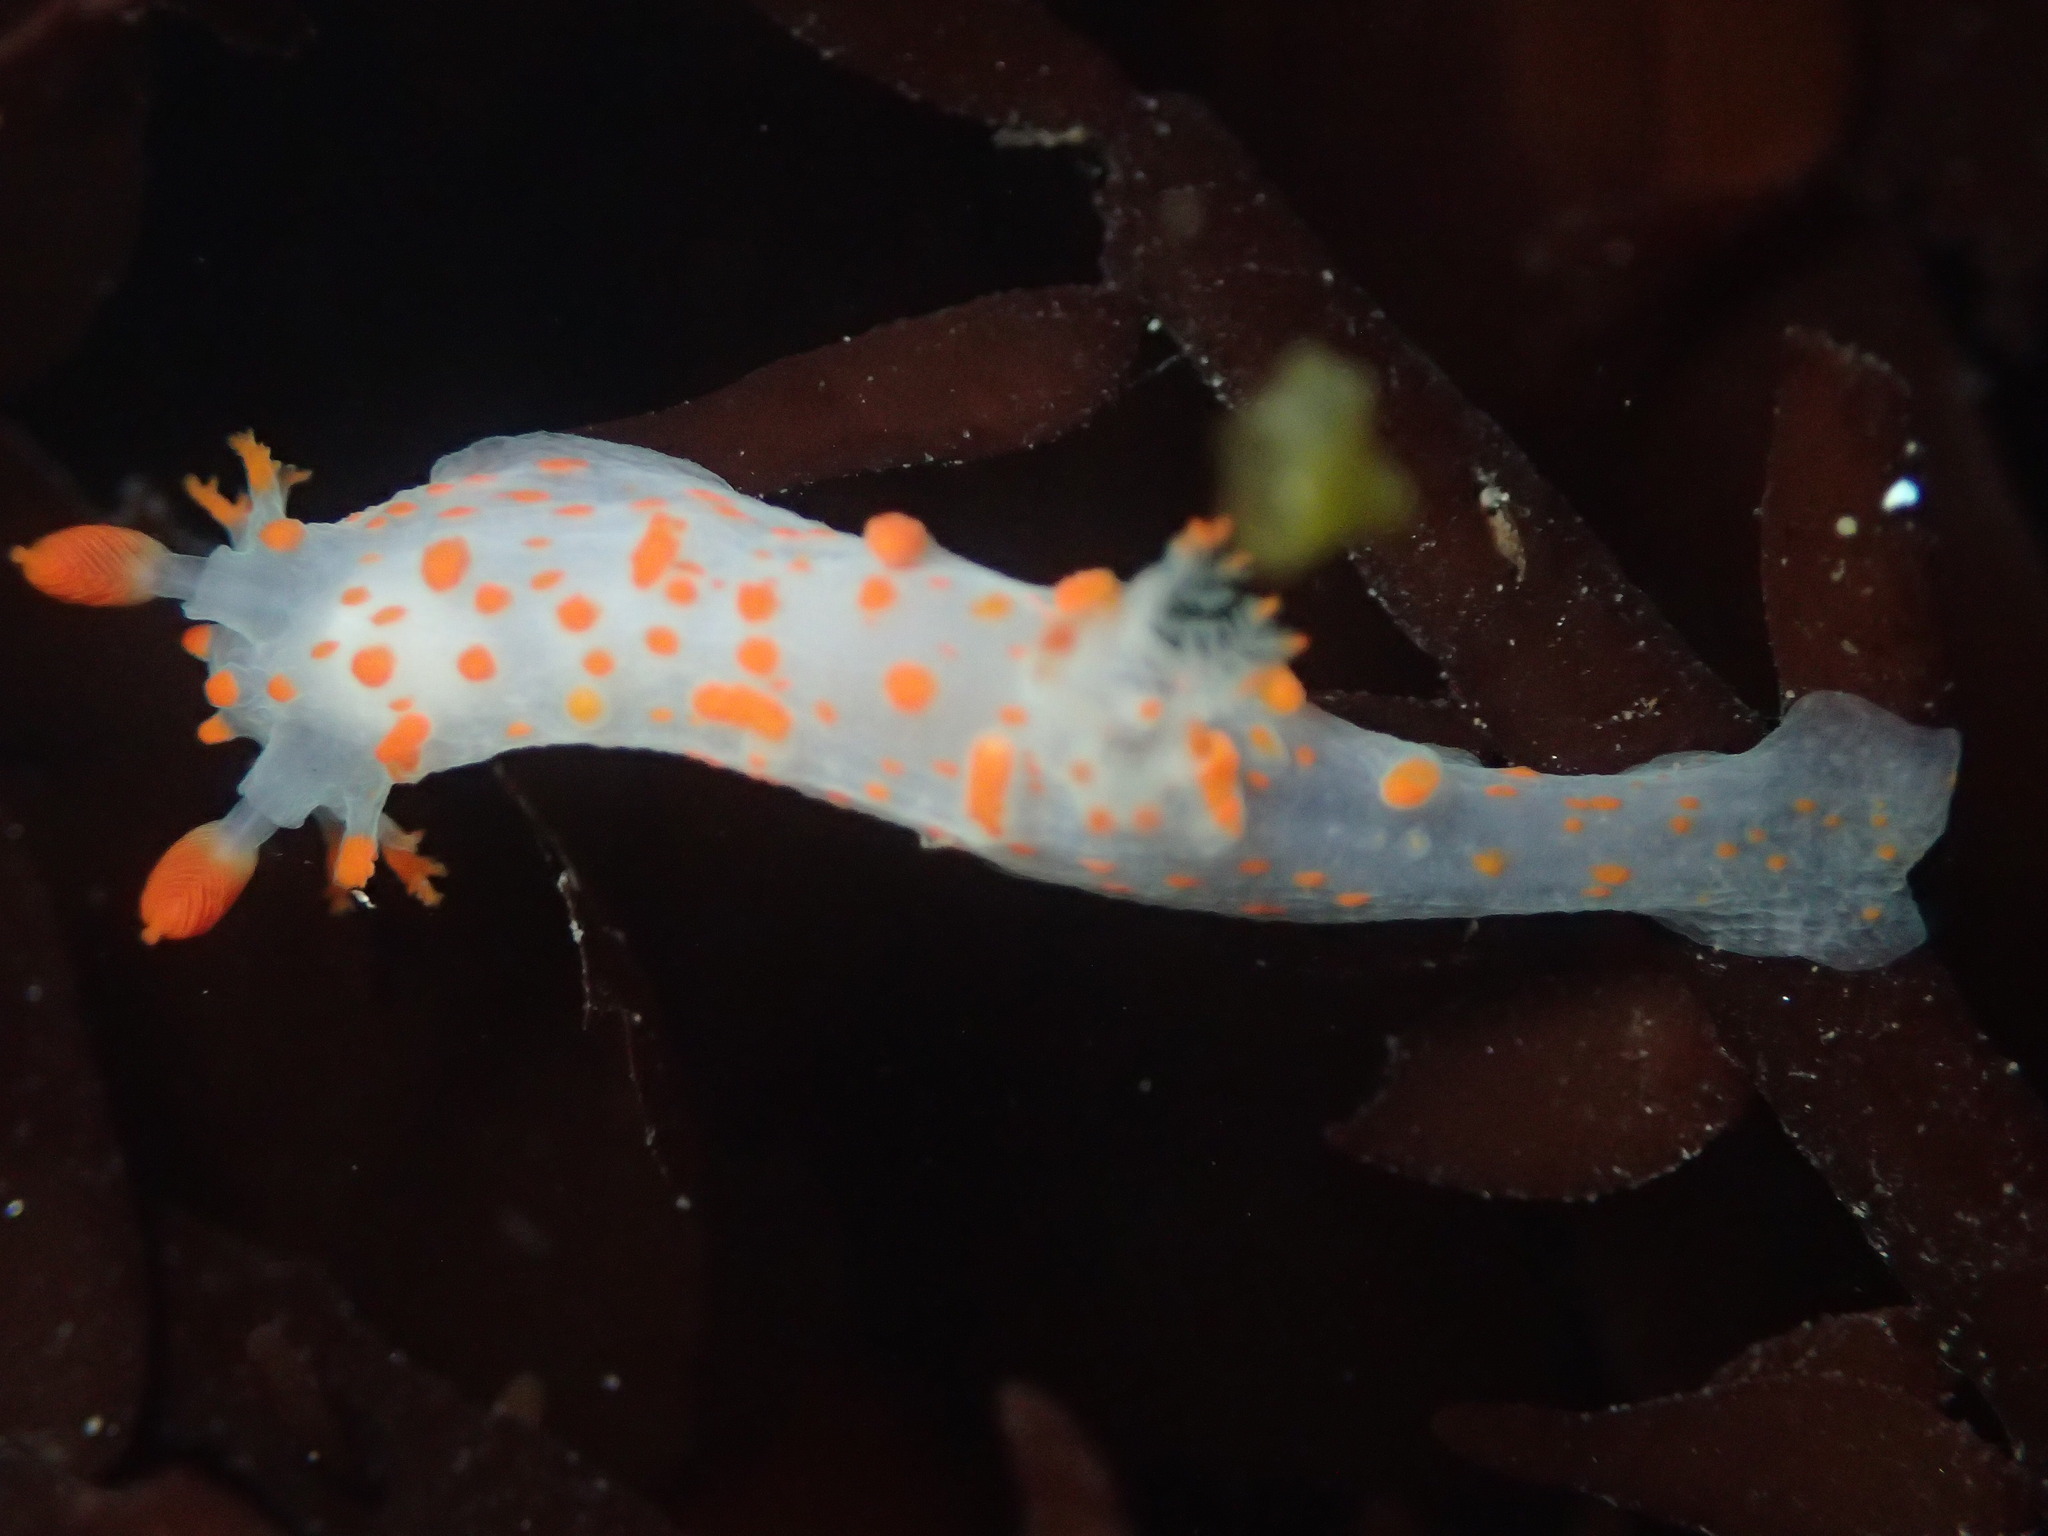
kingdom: Animalia
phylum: Mollusca
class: Gastropoda
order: Nudibranchia
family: Polyceridae
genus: Triopha
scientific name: Triopha catalinae
